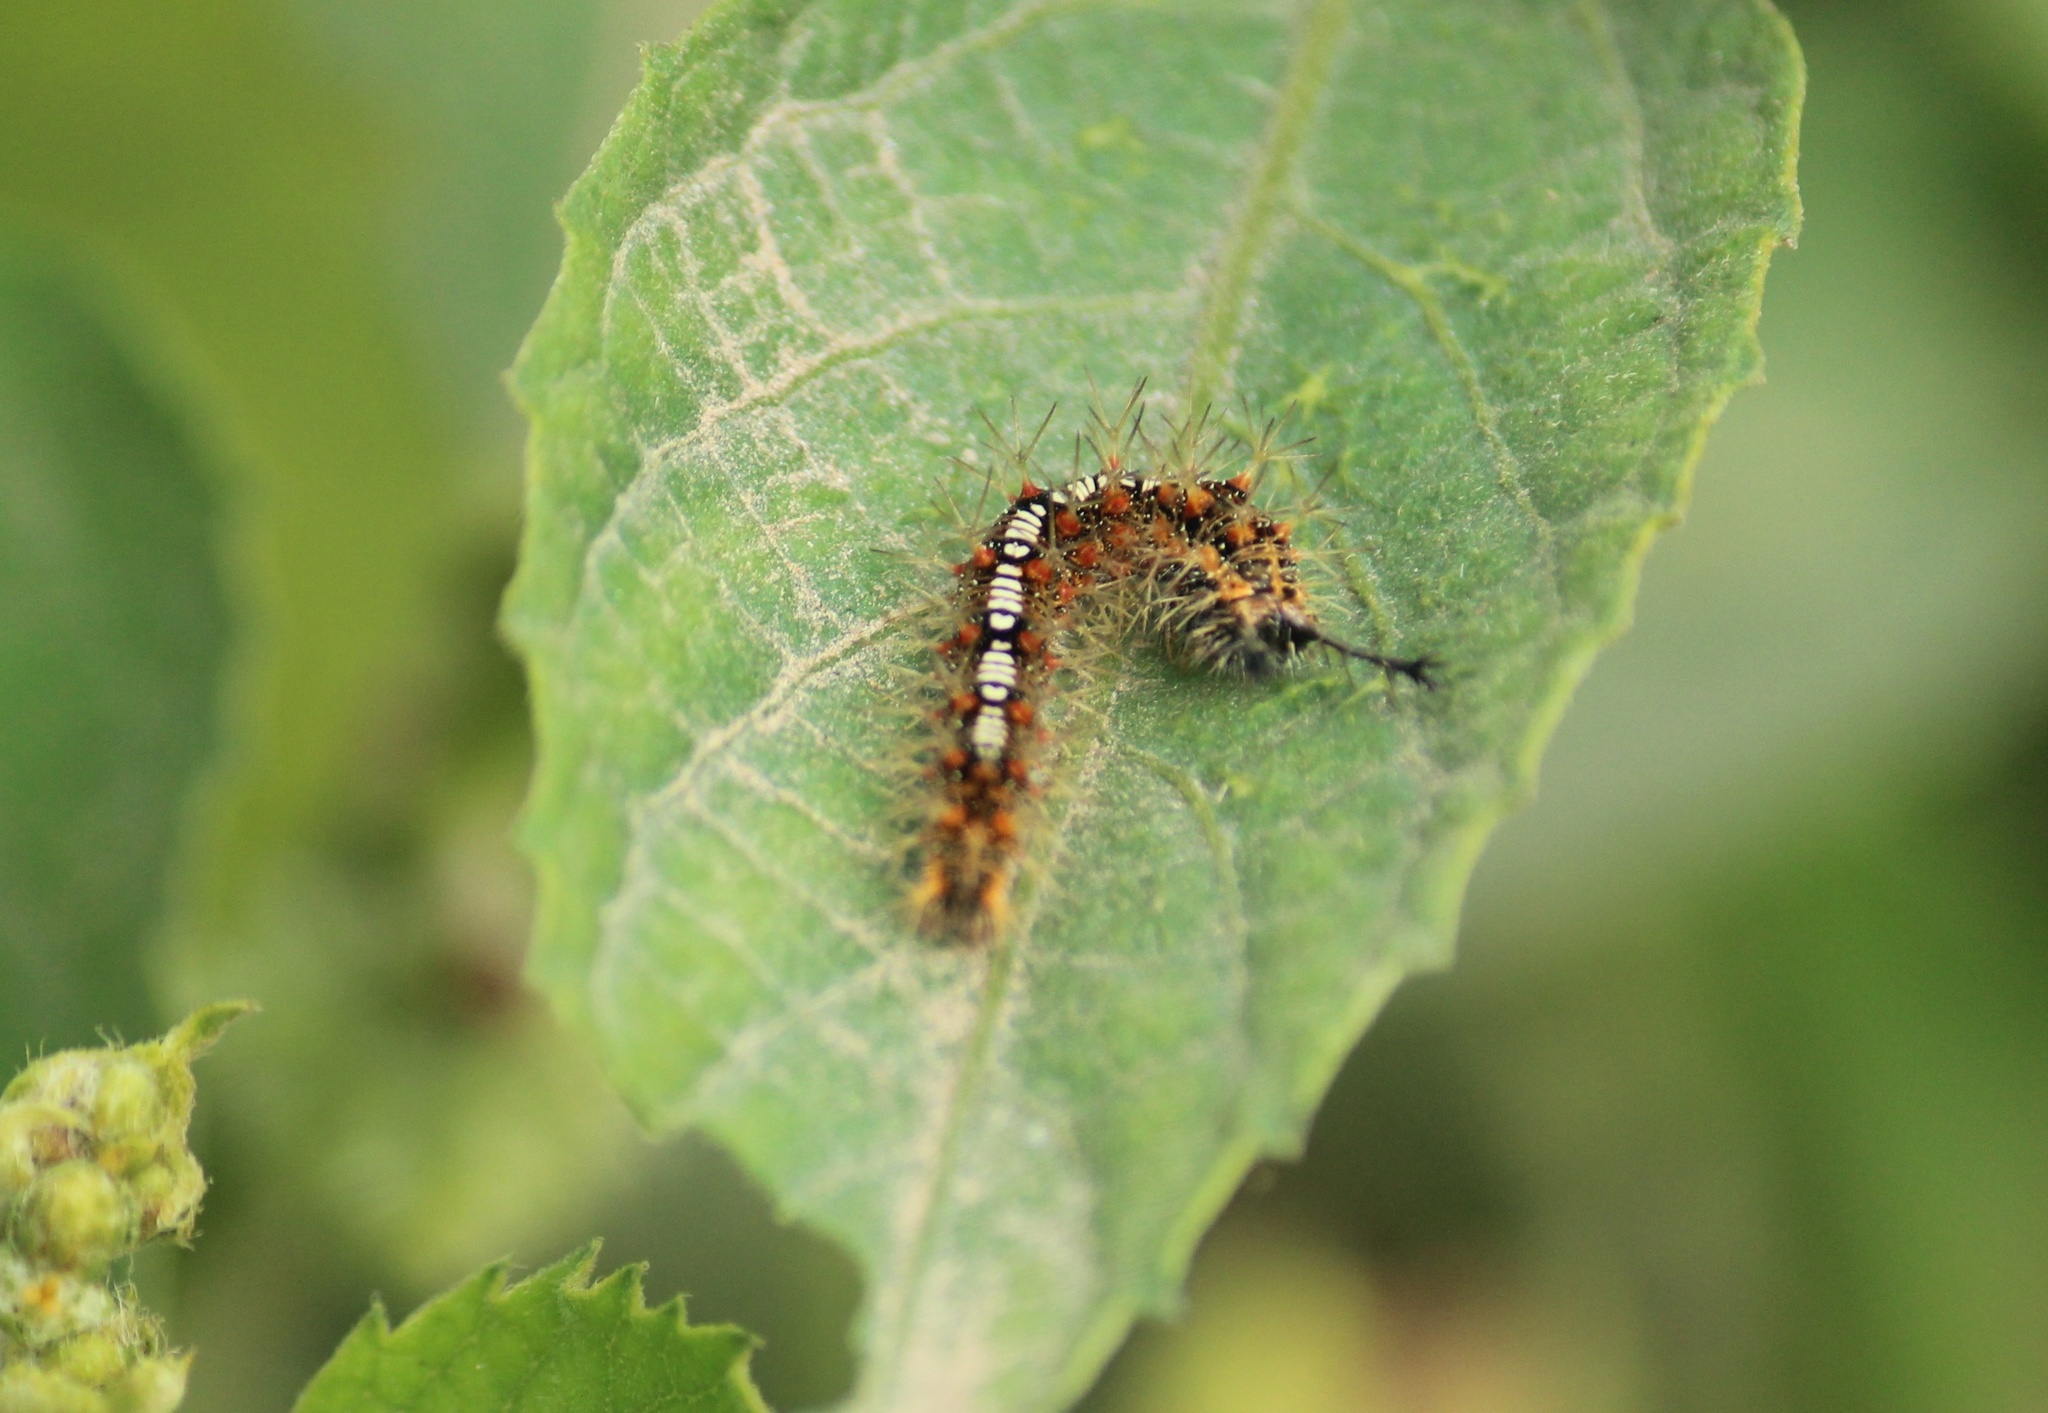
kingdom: Animalia
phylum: Arthropoda
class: Insecta
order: Lepidoptera
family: Nymphalidae
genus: Ariadne
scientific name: Ariadne ariadne
